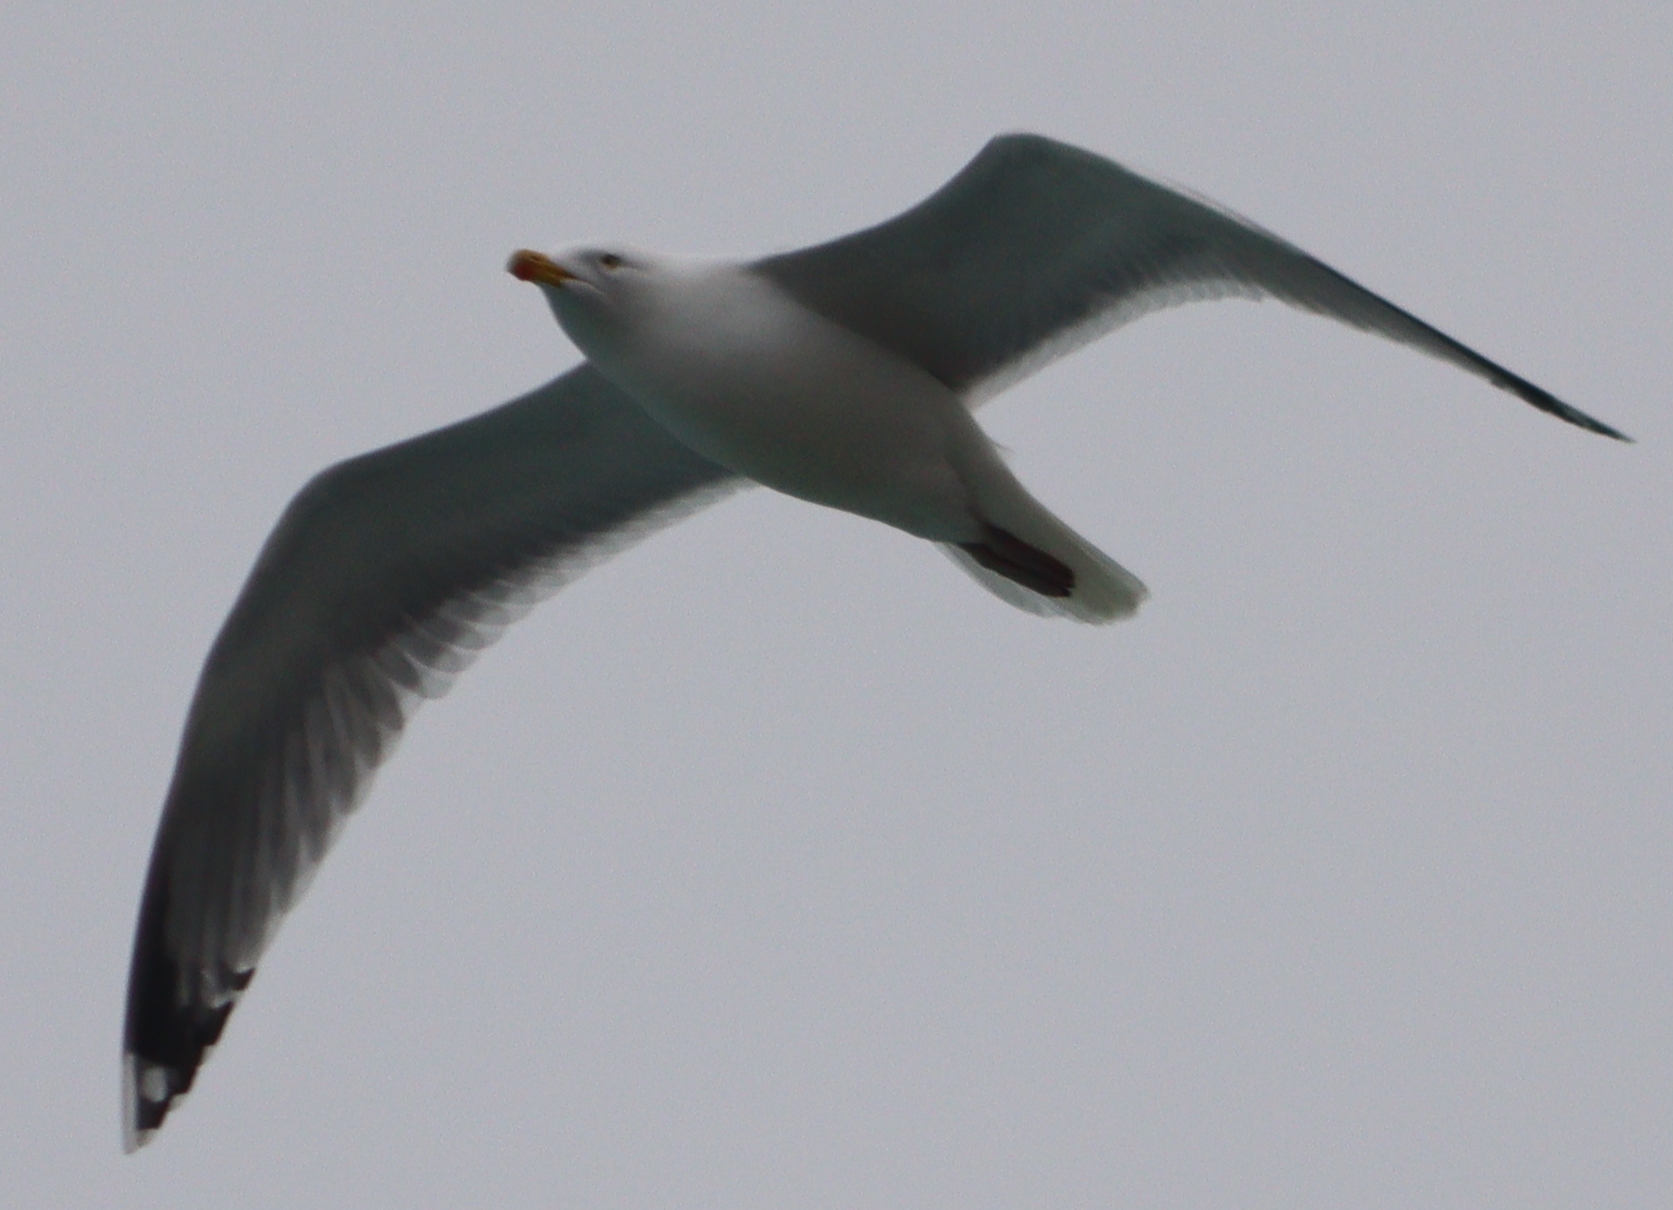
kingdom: Animalia
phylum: Chordata
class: Aves
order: Charadriiformes
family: Laridae
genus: Larus
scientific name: Larus argentatus
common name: Herring gull
